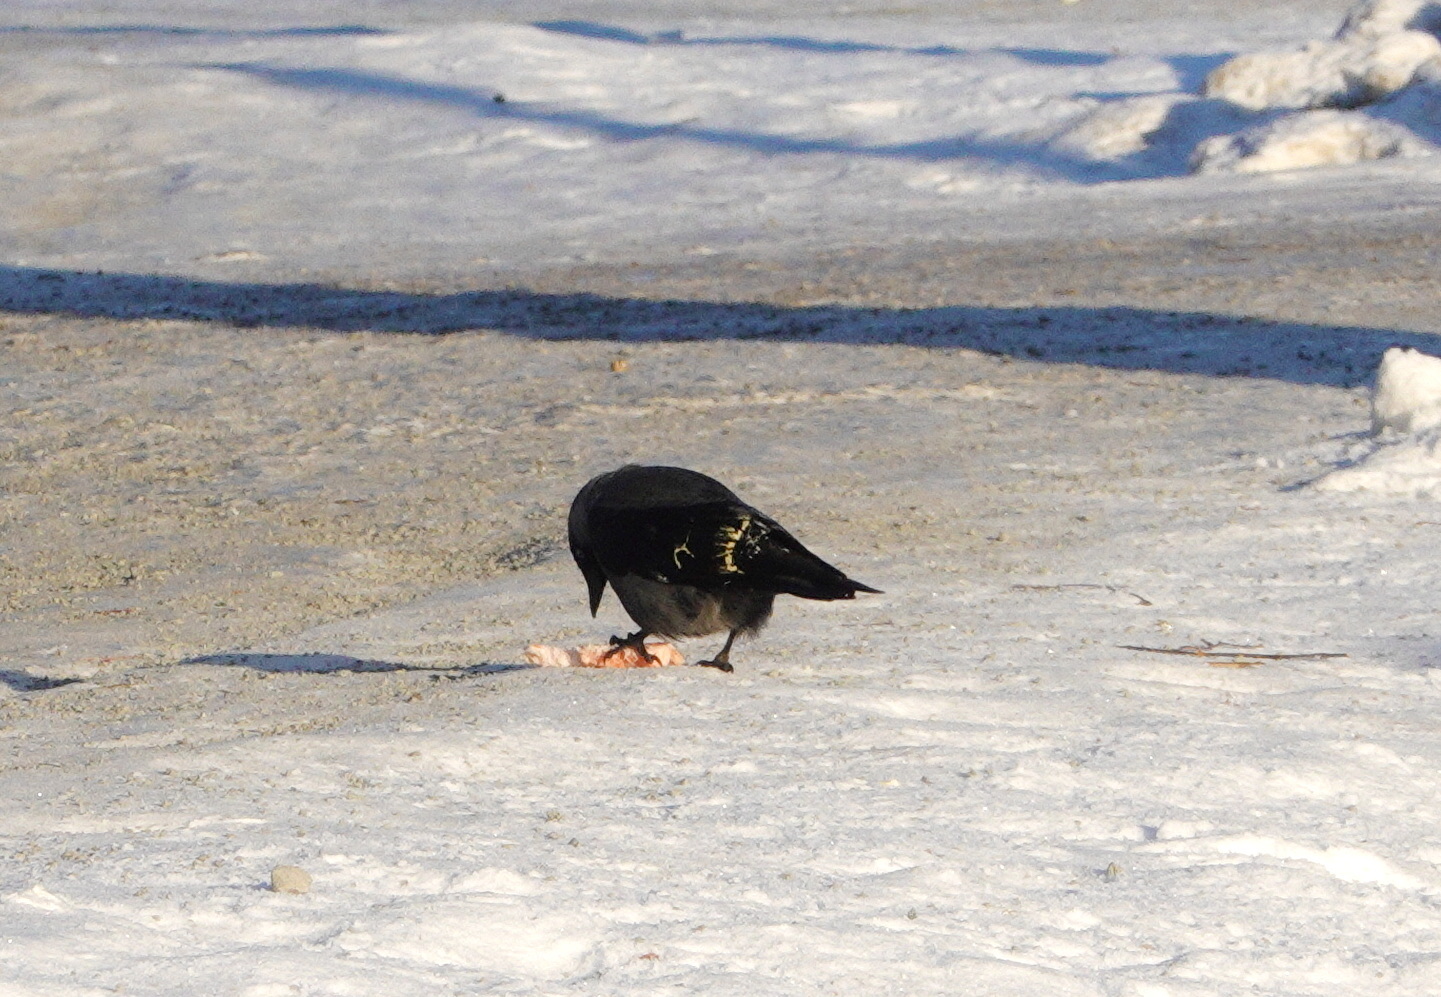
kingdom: Animalia
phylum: Chordata
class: Aves
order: Passeriformes
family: Corvidae
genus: Coloeus
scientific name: Coloeus monedula
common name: Western jackdaw
